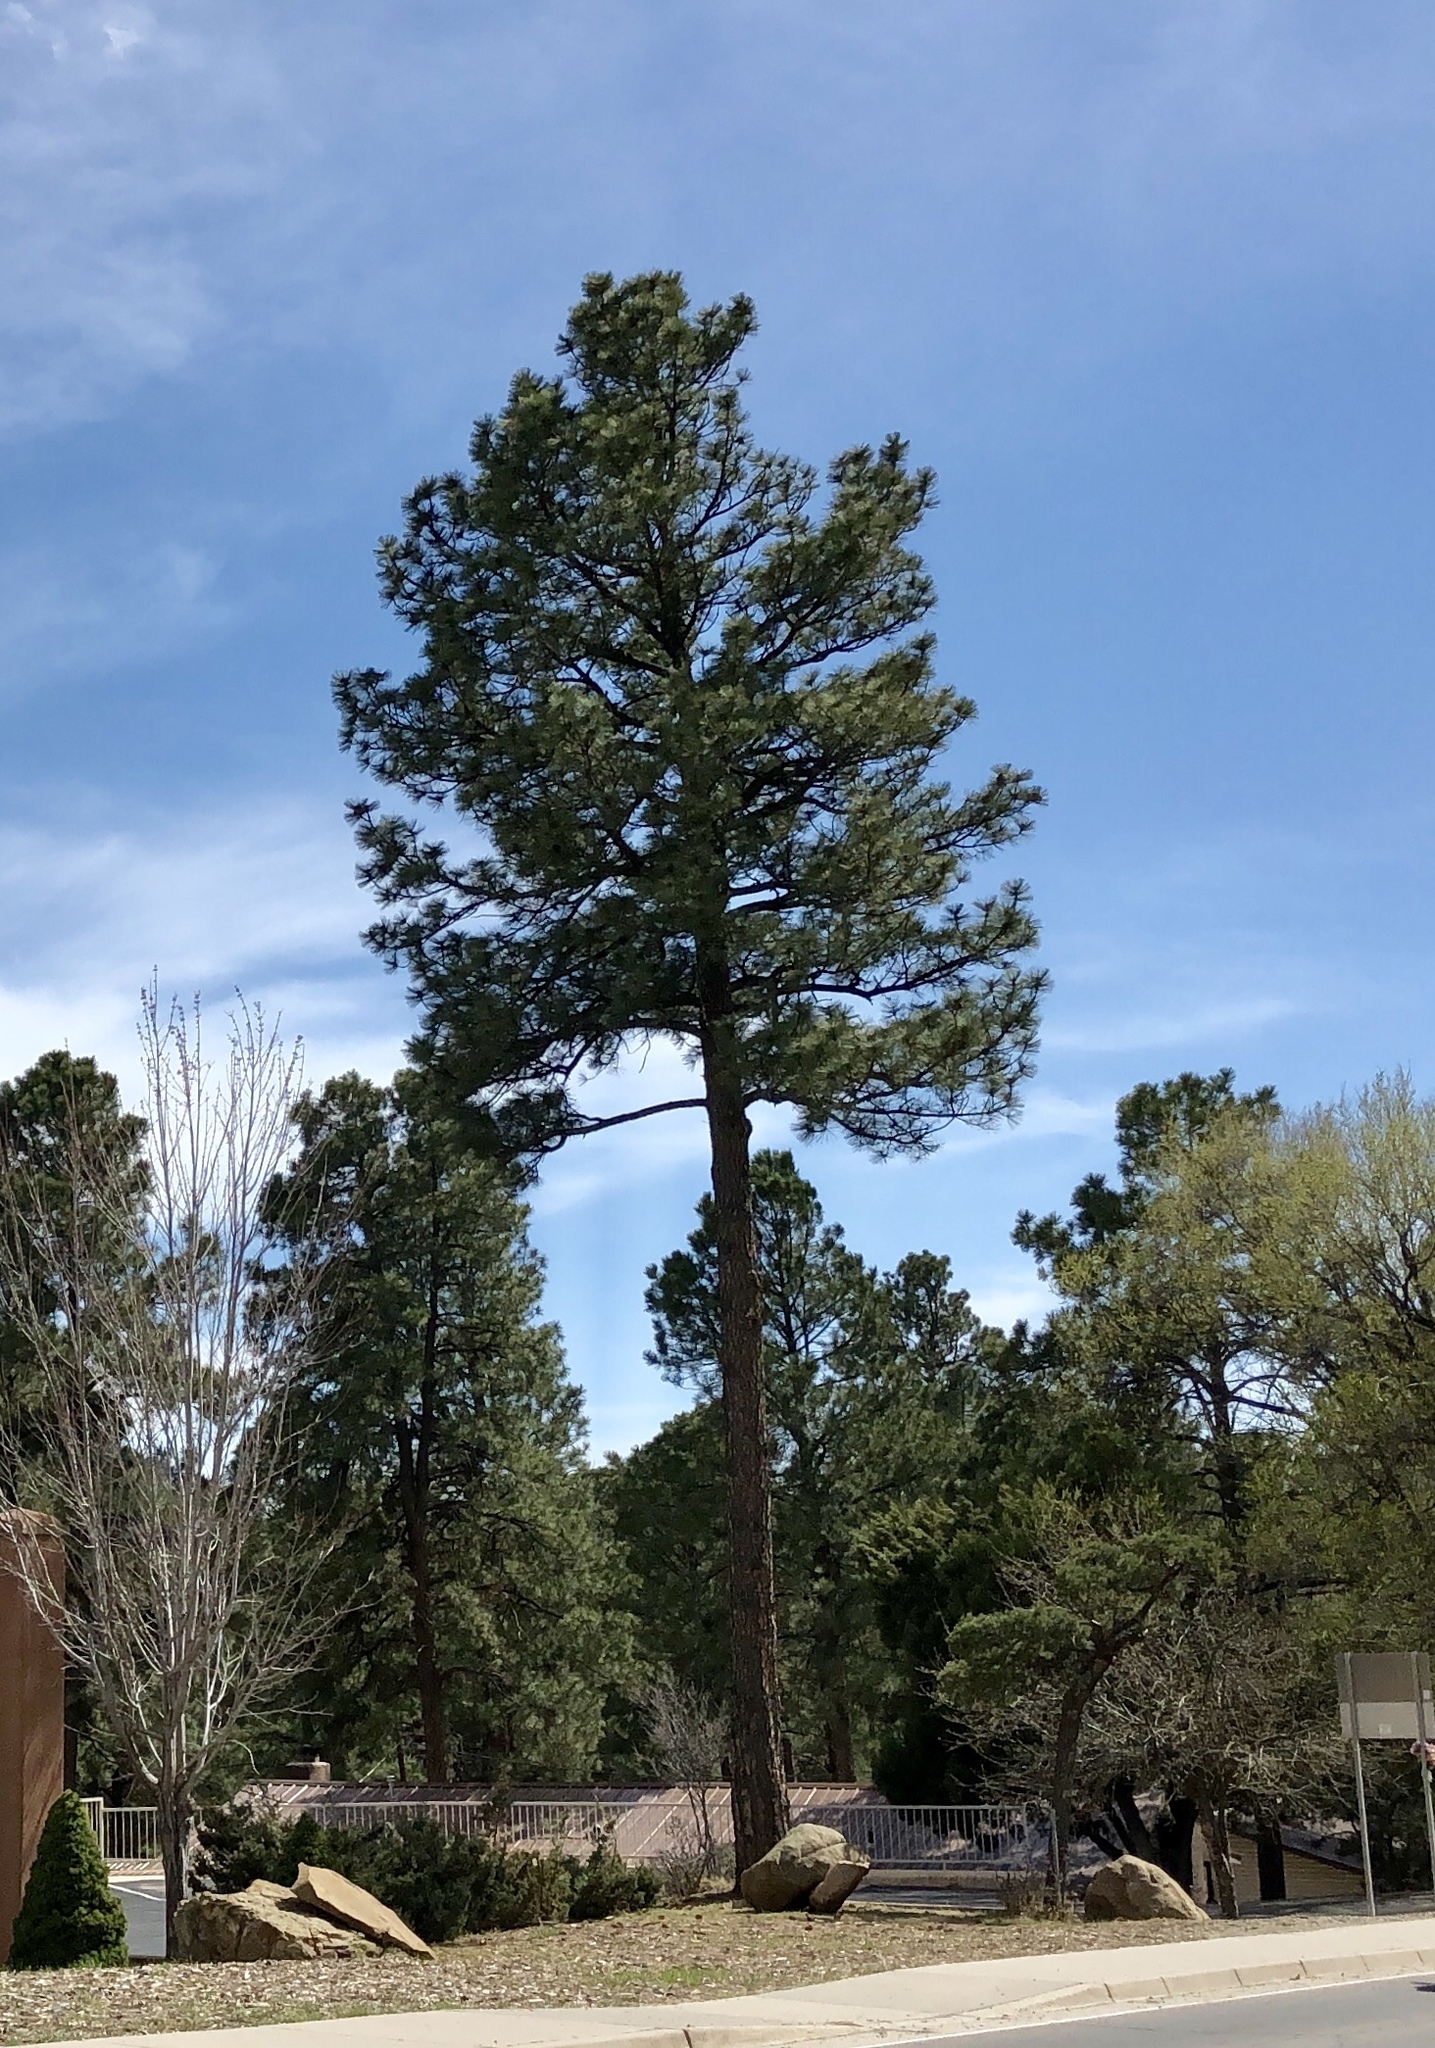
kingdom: Plantae
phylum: Tracheophyta
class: Pinopsida
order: Pinales
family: Pinaceae
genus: Pinus
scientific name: Pinus ponderosa
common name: Western yellow-pine
